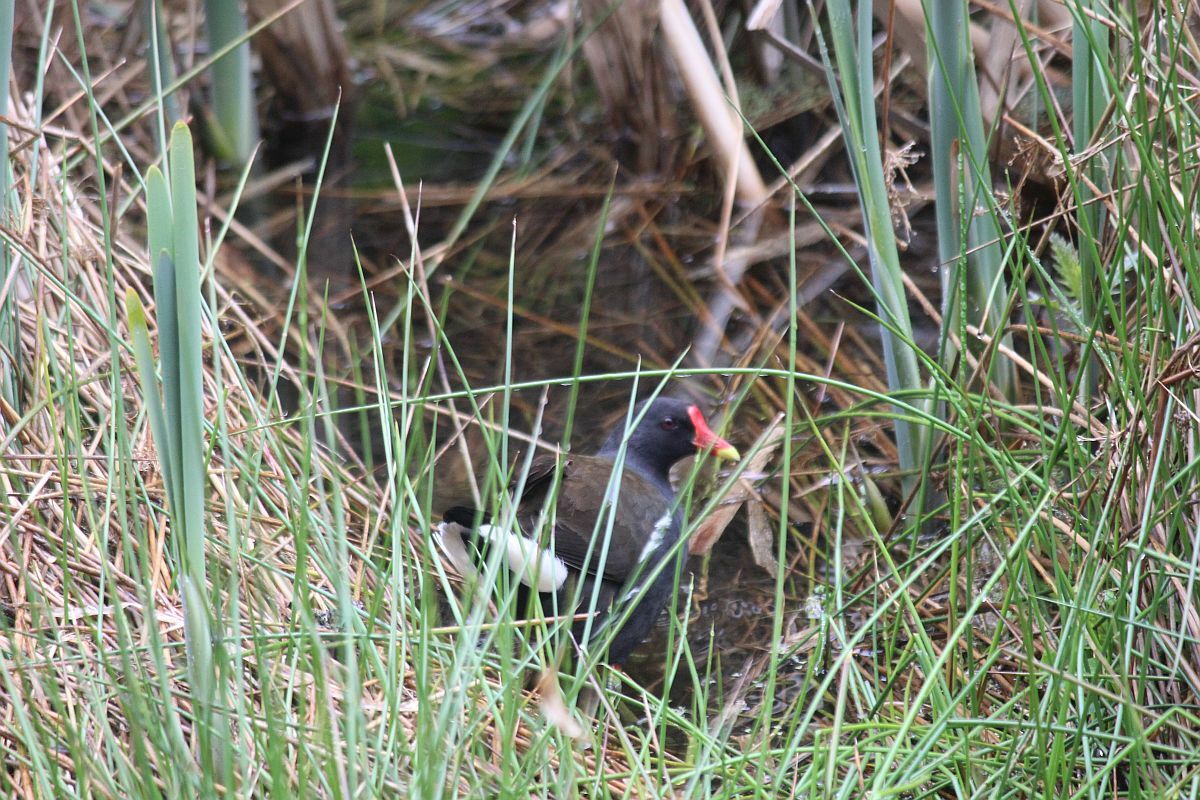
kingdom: Animalia
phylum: Chordata
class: Aves
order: Gruiformes
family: Rallidae
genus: Gallinula
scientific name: Gallinula chloropus
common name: Common moorhen
